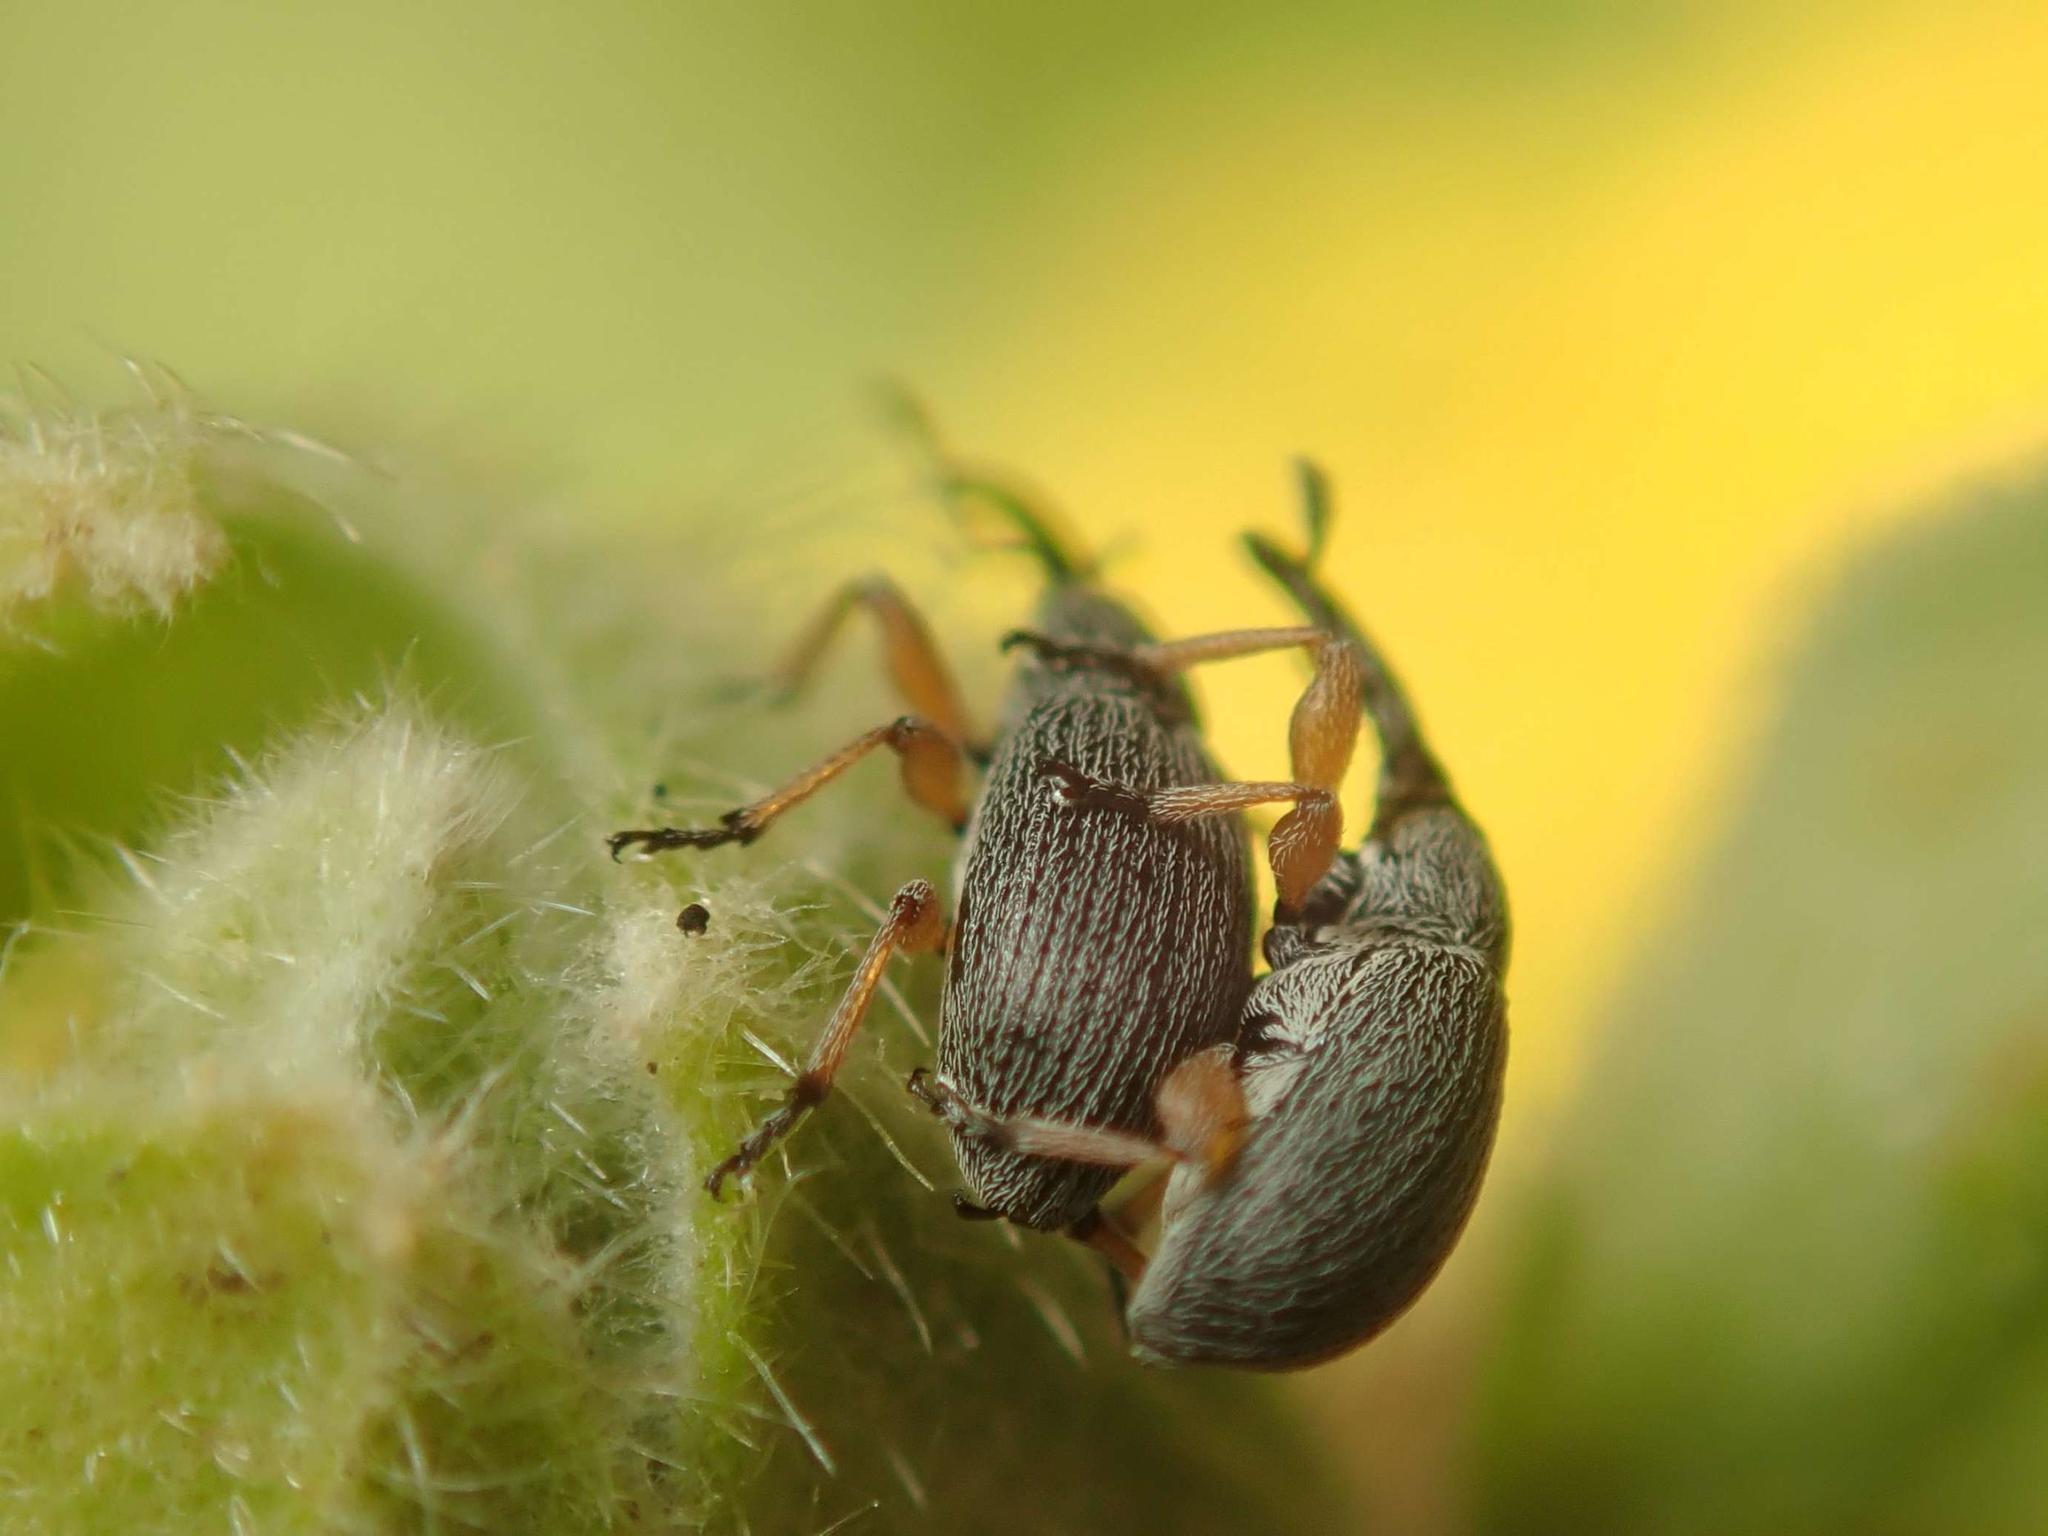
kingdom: Animalia
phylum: Arthropoda
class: Insecta
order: Coleoptera
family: Brentidae
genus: Rhopalapion
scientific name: Rhopalapion longirostre
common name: Hollyhock weevil
